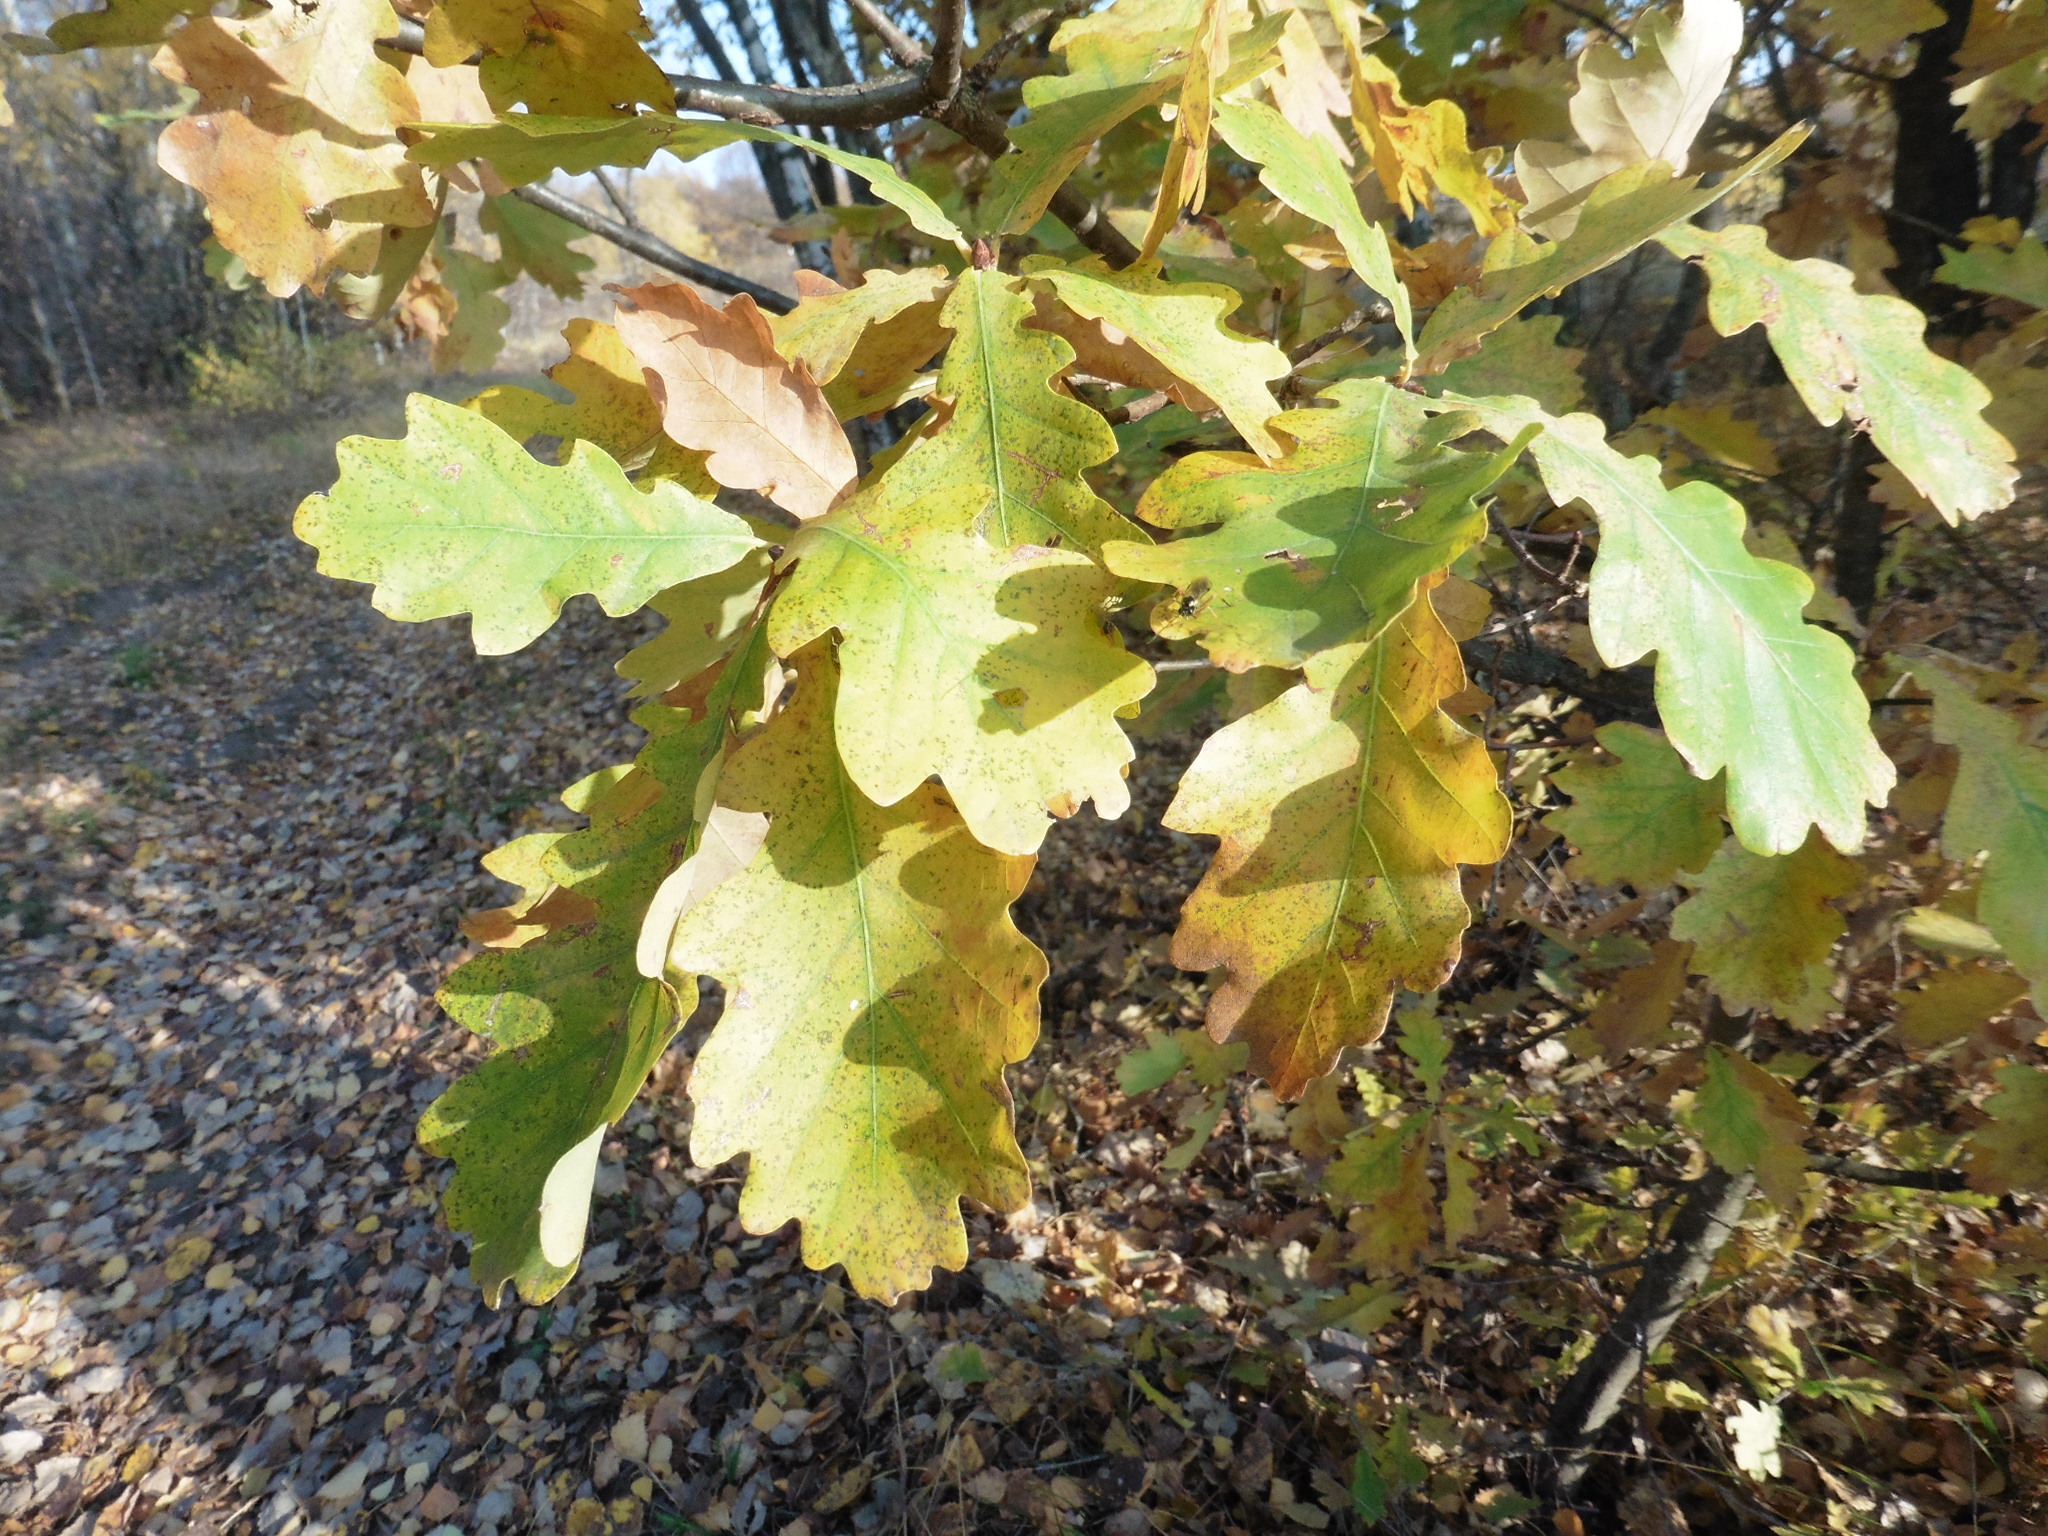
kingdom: Plantae
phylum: Tracheophyta
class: Magnoliopsida
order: Fagales
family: Fagaceae
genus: Quercus
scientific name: Quercus robur
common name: Pedunculate oak
